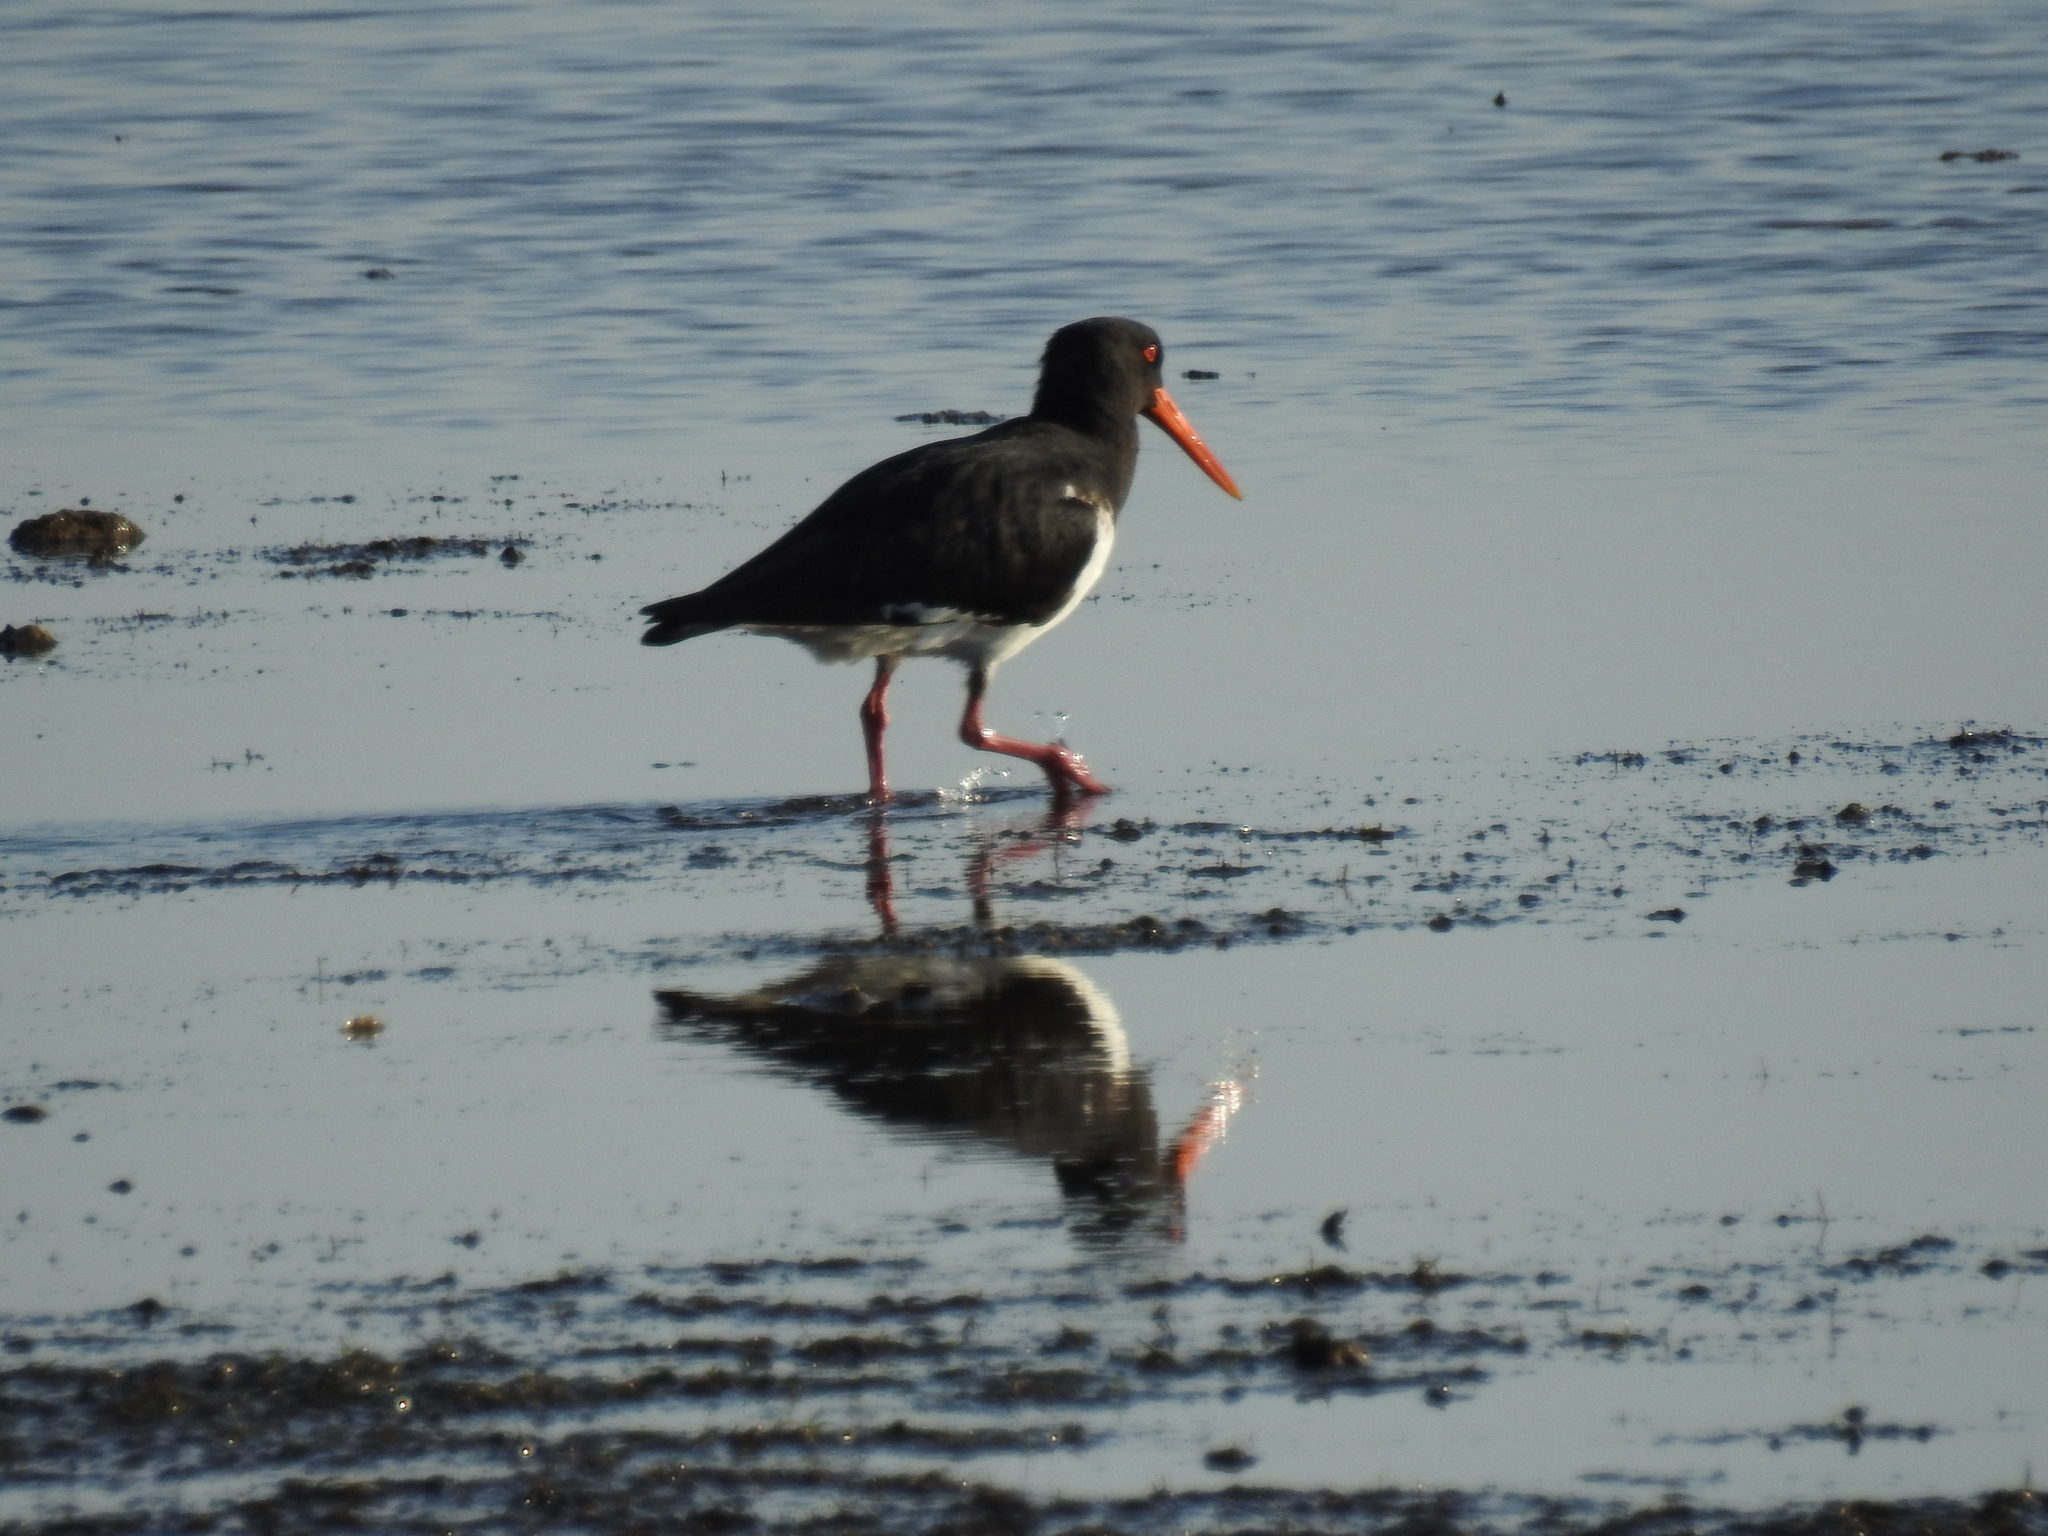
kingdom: Animalia
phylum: Chordata
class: Aves
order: Charadriiformes
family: Haematopodidae
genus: Haematopus
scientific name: Haematopus longirostris
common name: Pied oystercatcher
